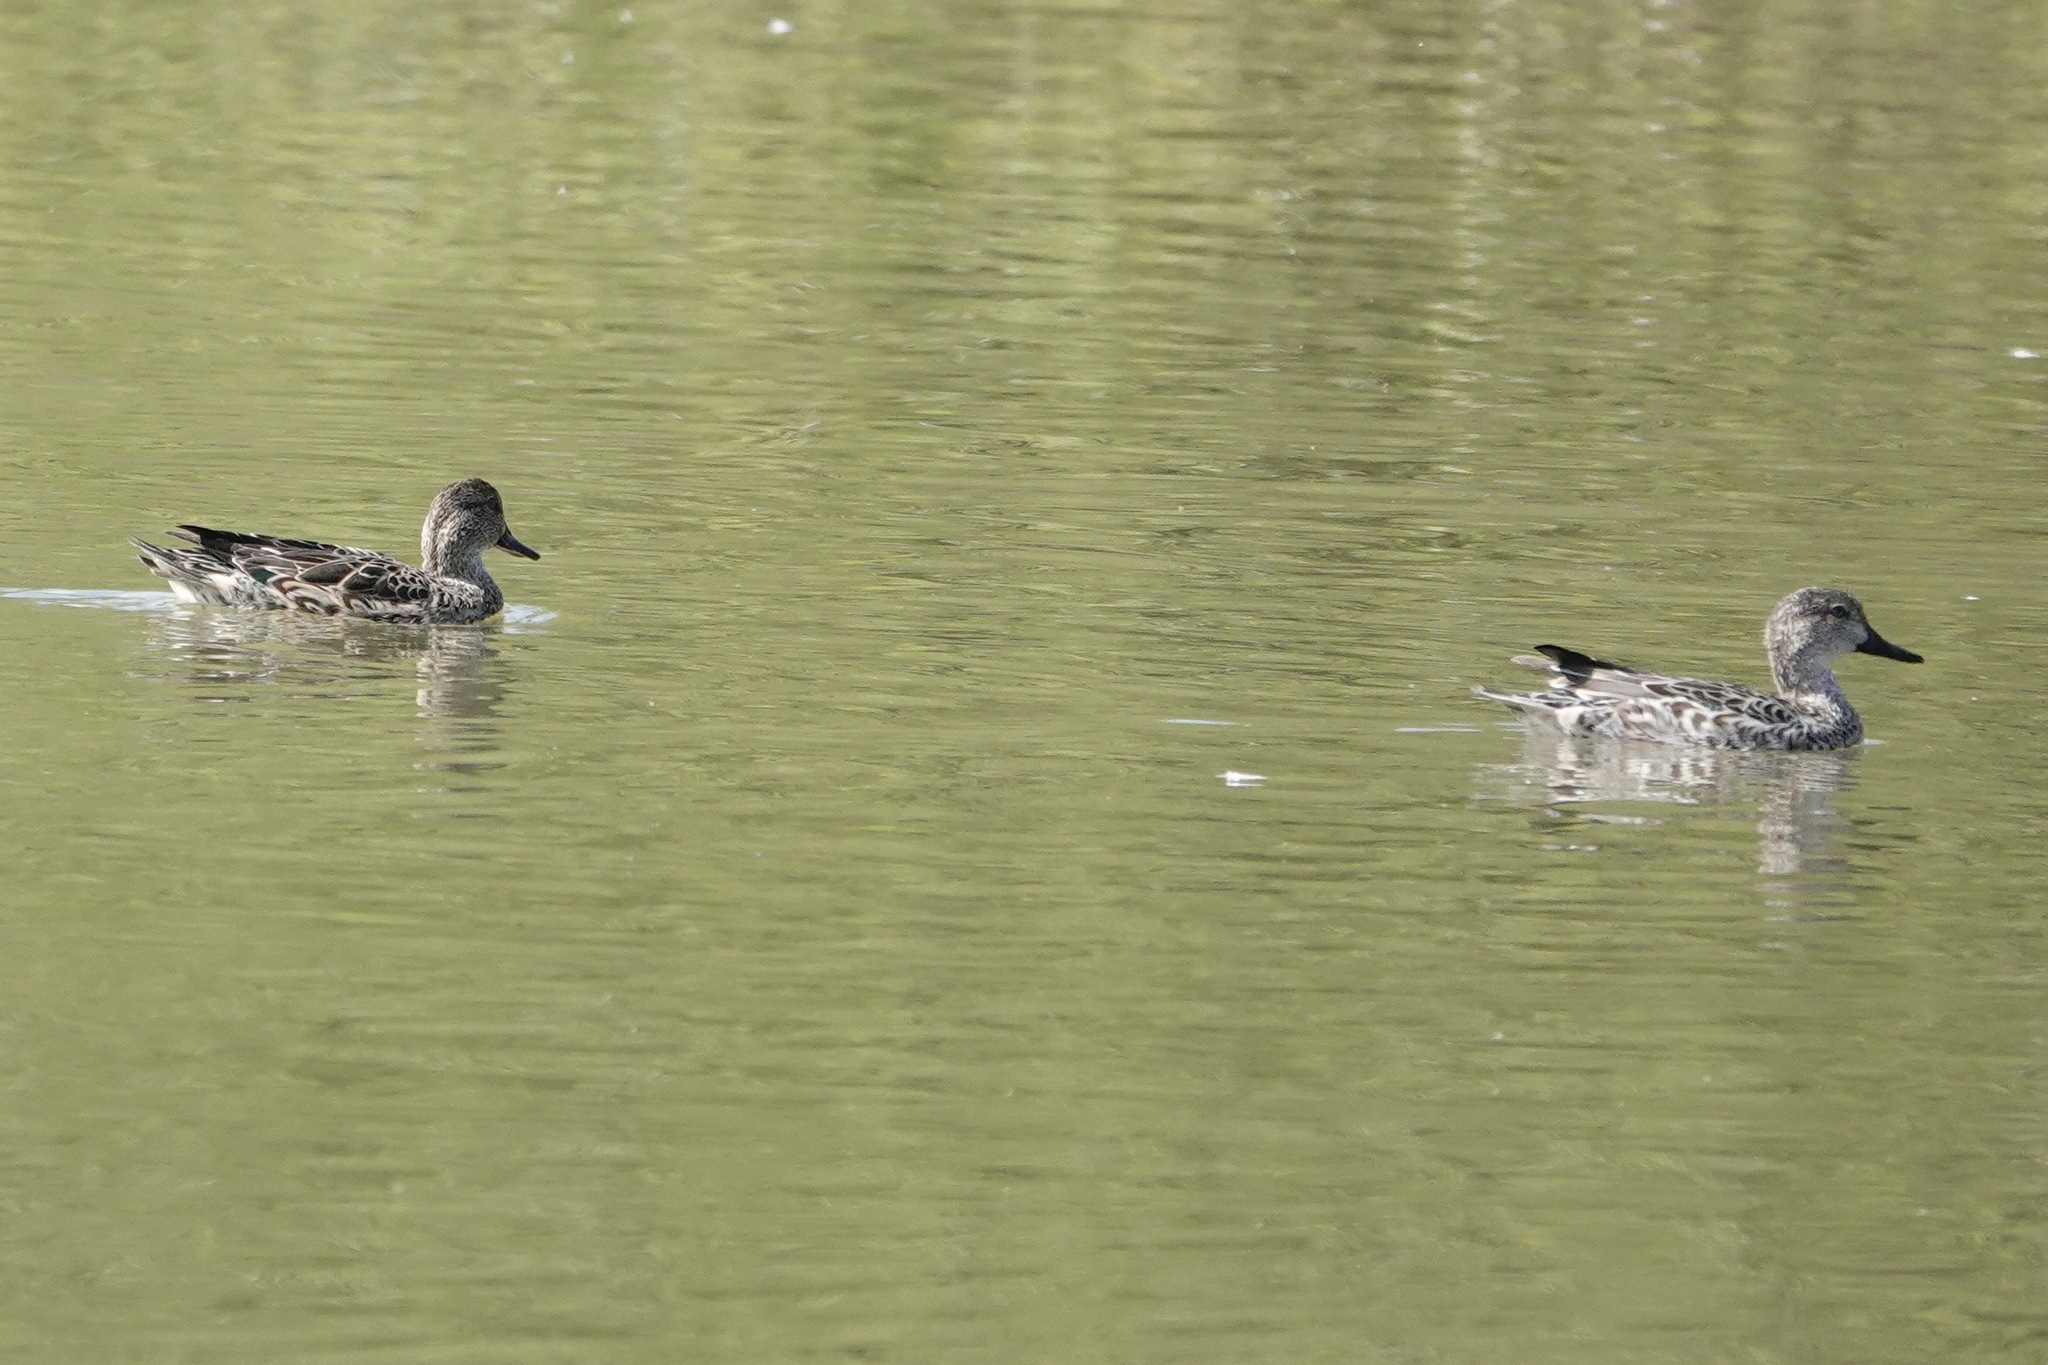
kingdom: Animalia
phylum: Chordata
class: Aves
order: Anseriformes
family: Anatidae
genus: Anas
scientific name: Anas crecca
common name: Eurasian teal
